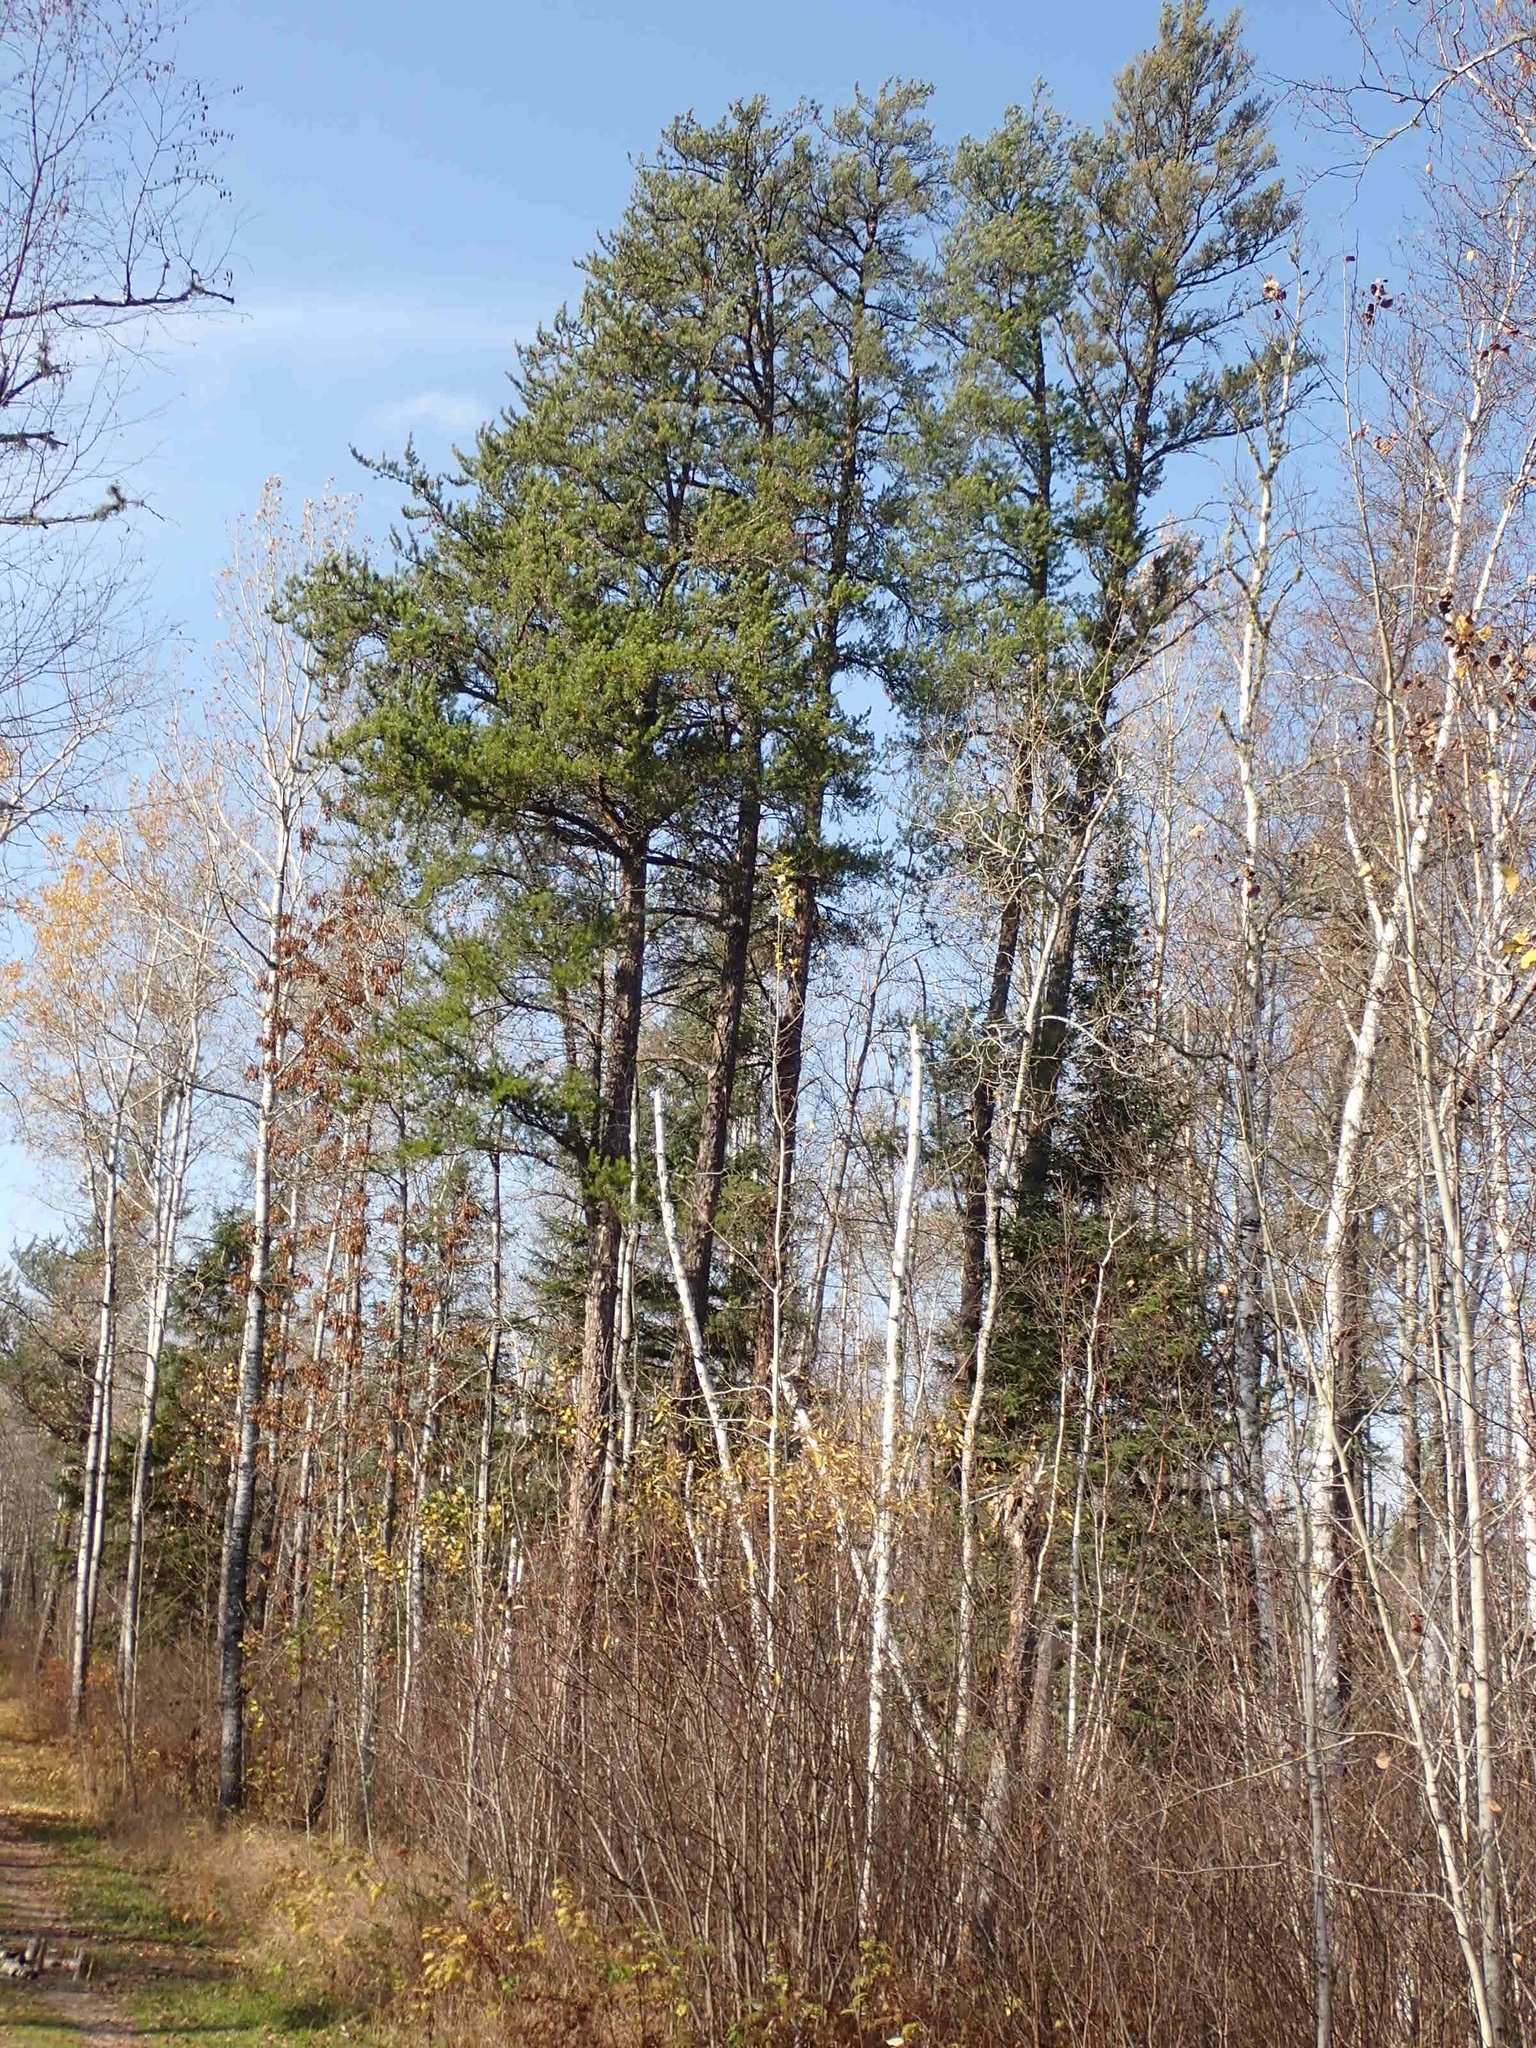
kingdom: Plantae
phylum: Tracheophyta
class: Pinopsida
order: Pinales
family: Pinaceae
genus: Pinus
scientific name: Pinus banksiana
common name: Jack pine
